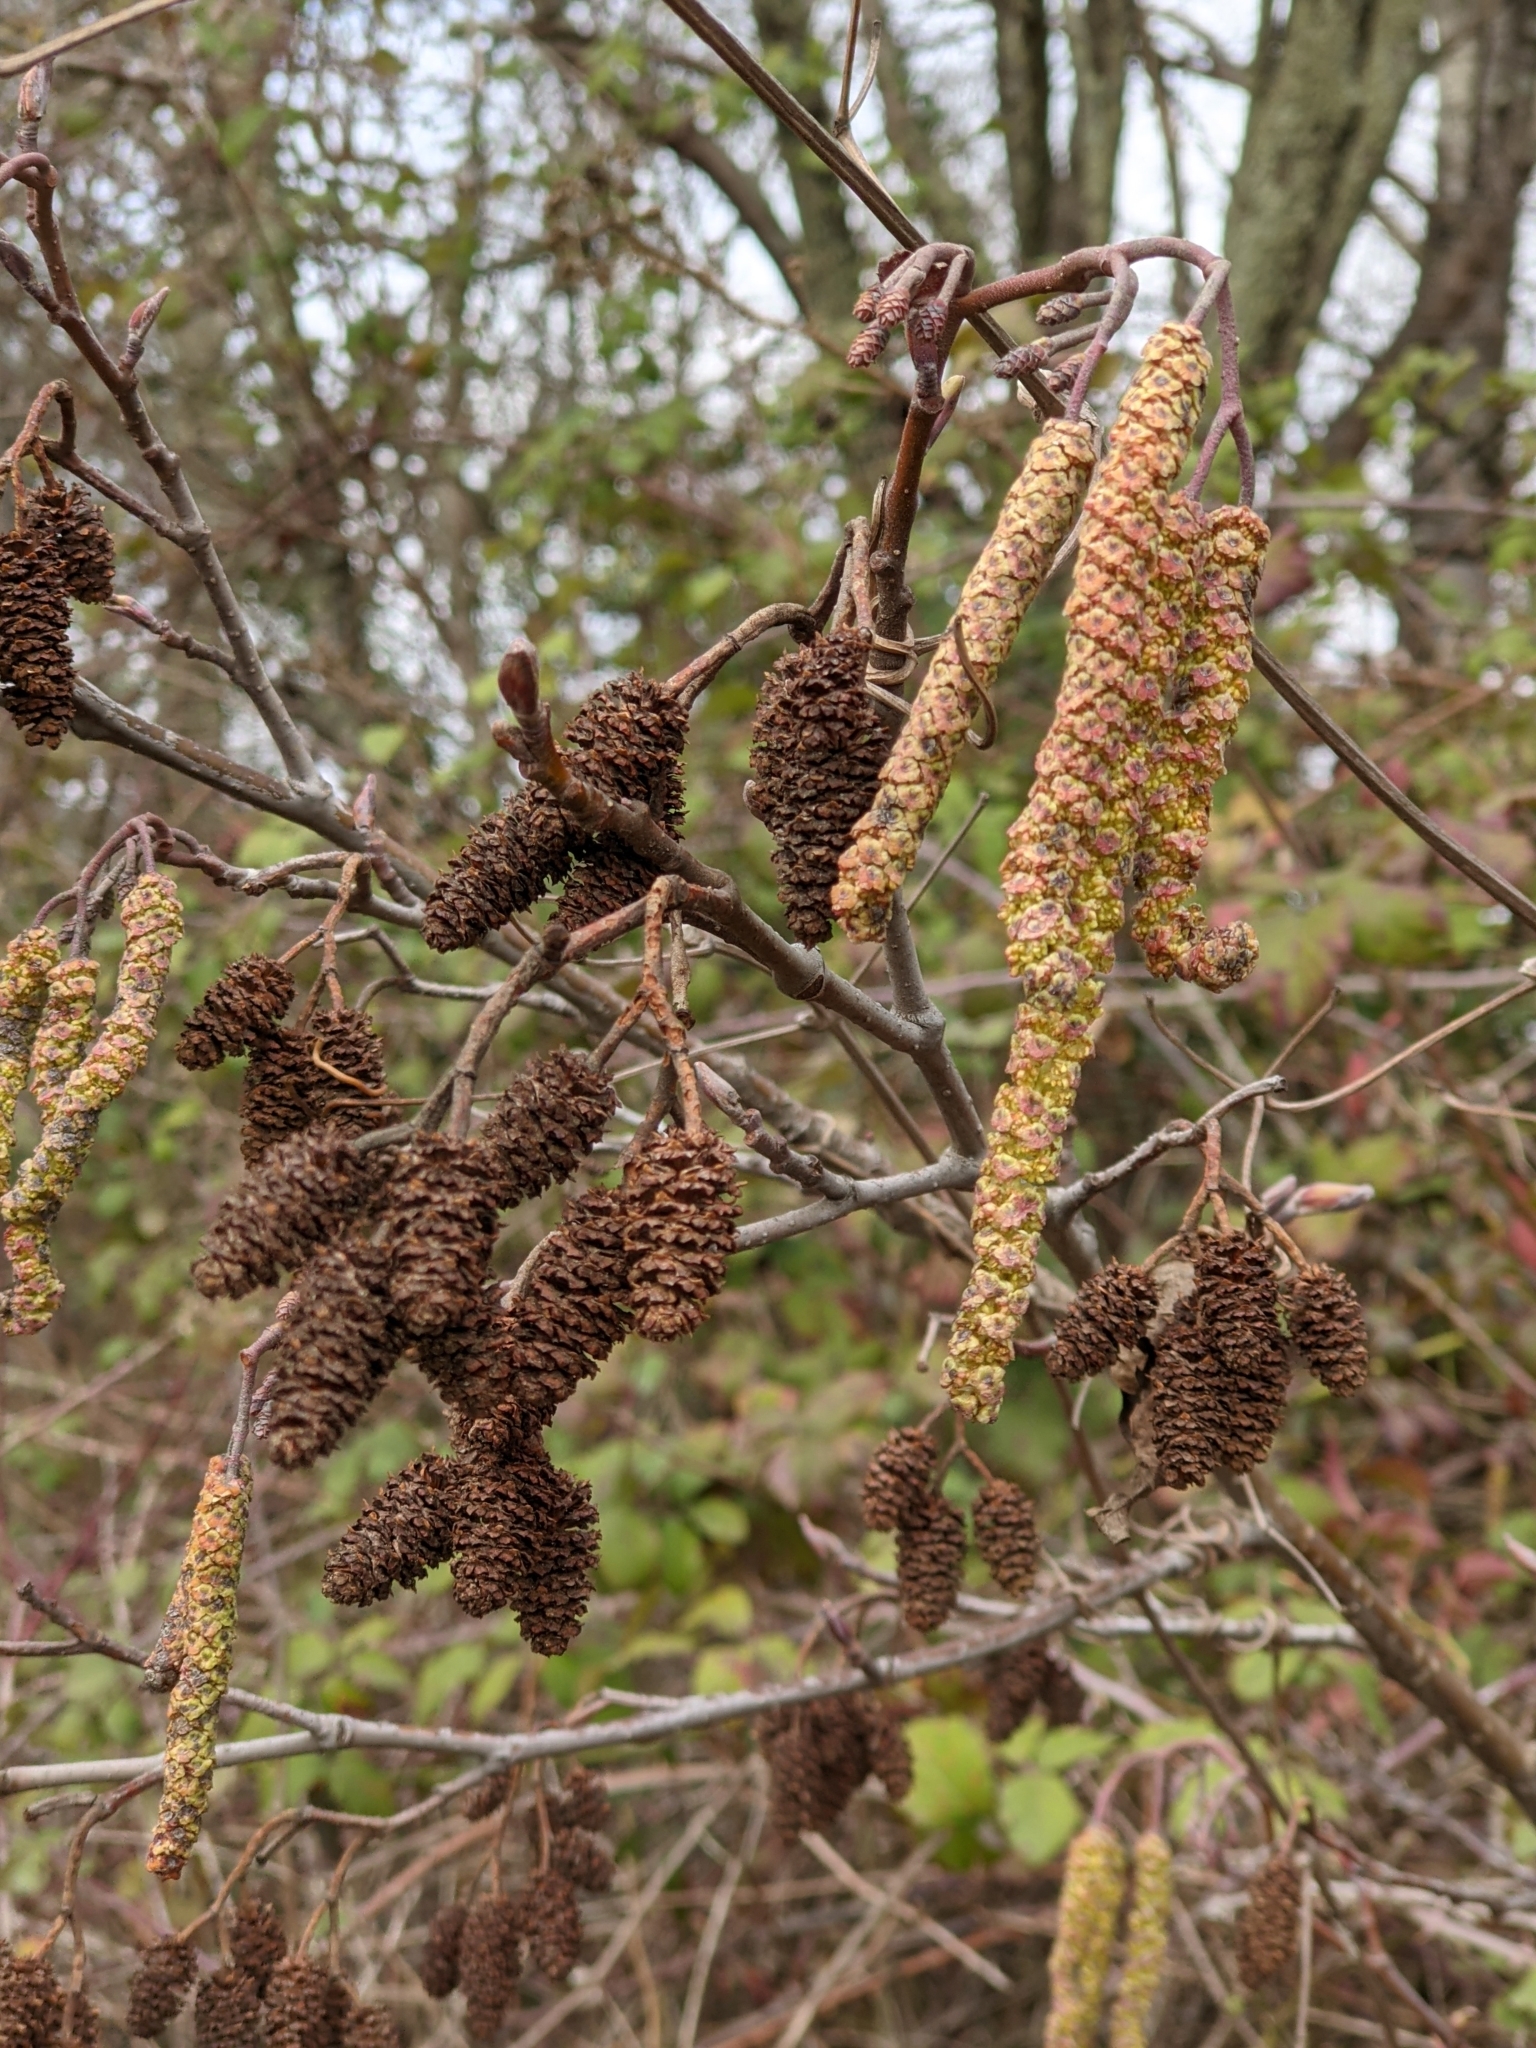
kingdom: Plantae
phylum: Tracheophyta
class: Magnoliopsida
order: Fagales
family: Betulaceae
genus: Alnus
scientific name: Alnus glutinosa
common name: Black alder
